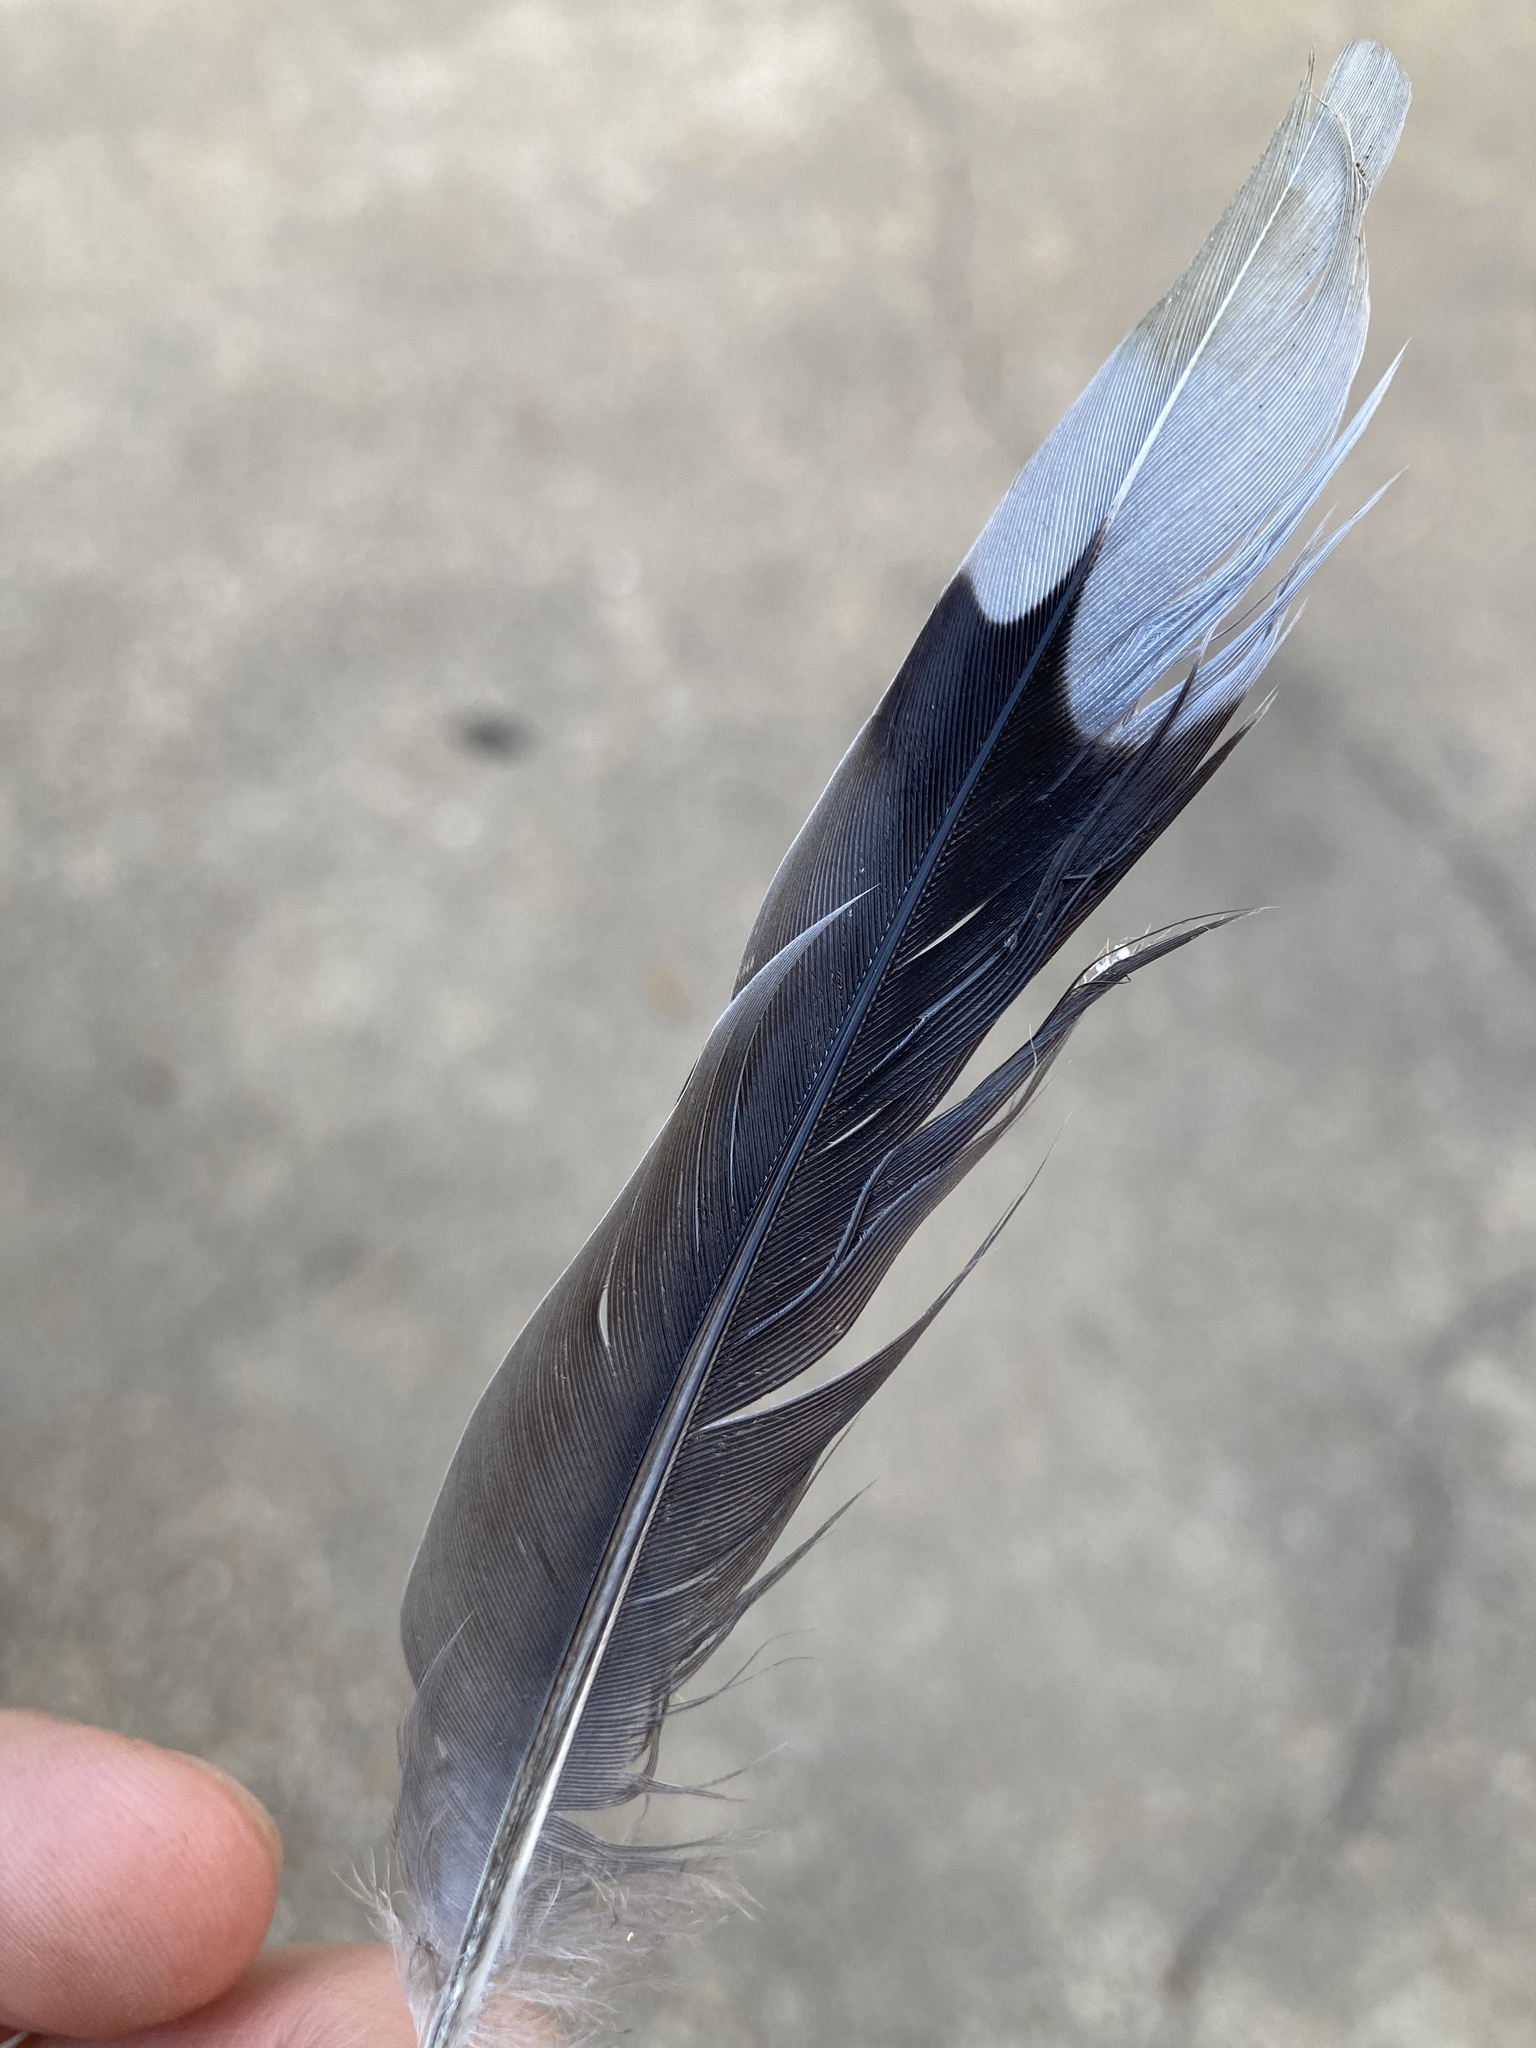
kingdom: Animalia
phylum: Chordata
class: Aves
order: Columbiformes
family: Columbidae
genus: Zenaida
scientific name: Zenaida macroura
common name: Mourning dove
